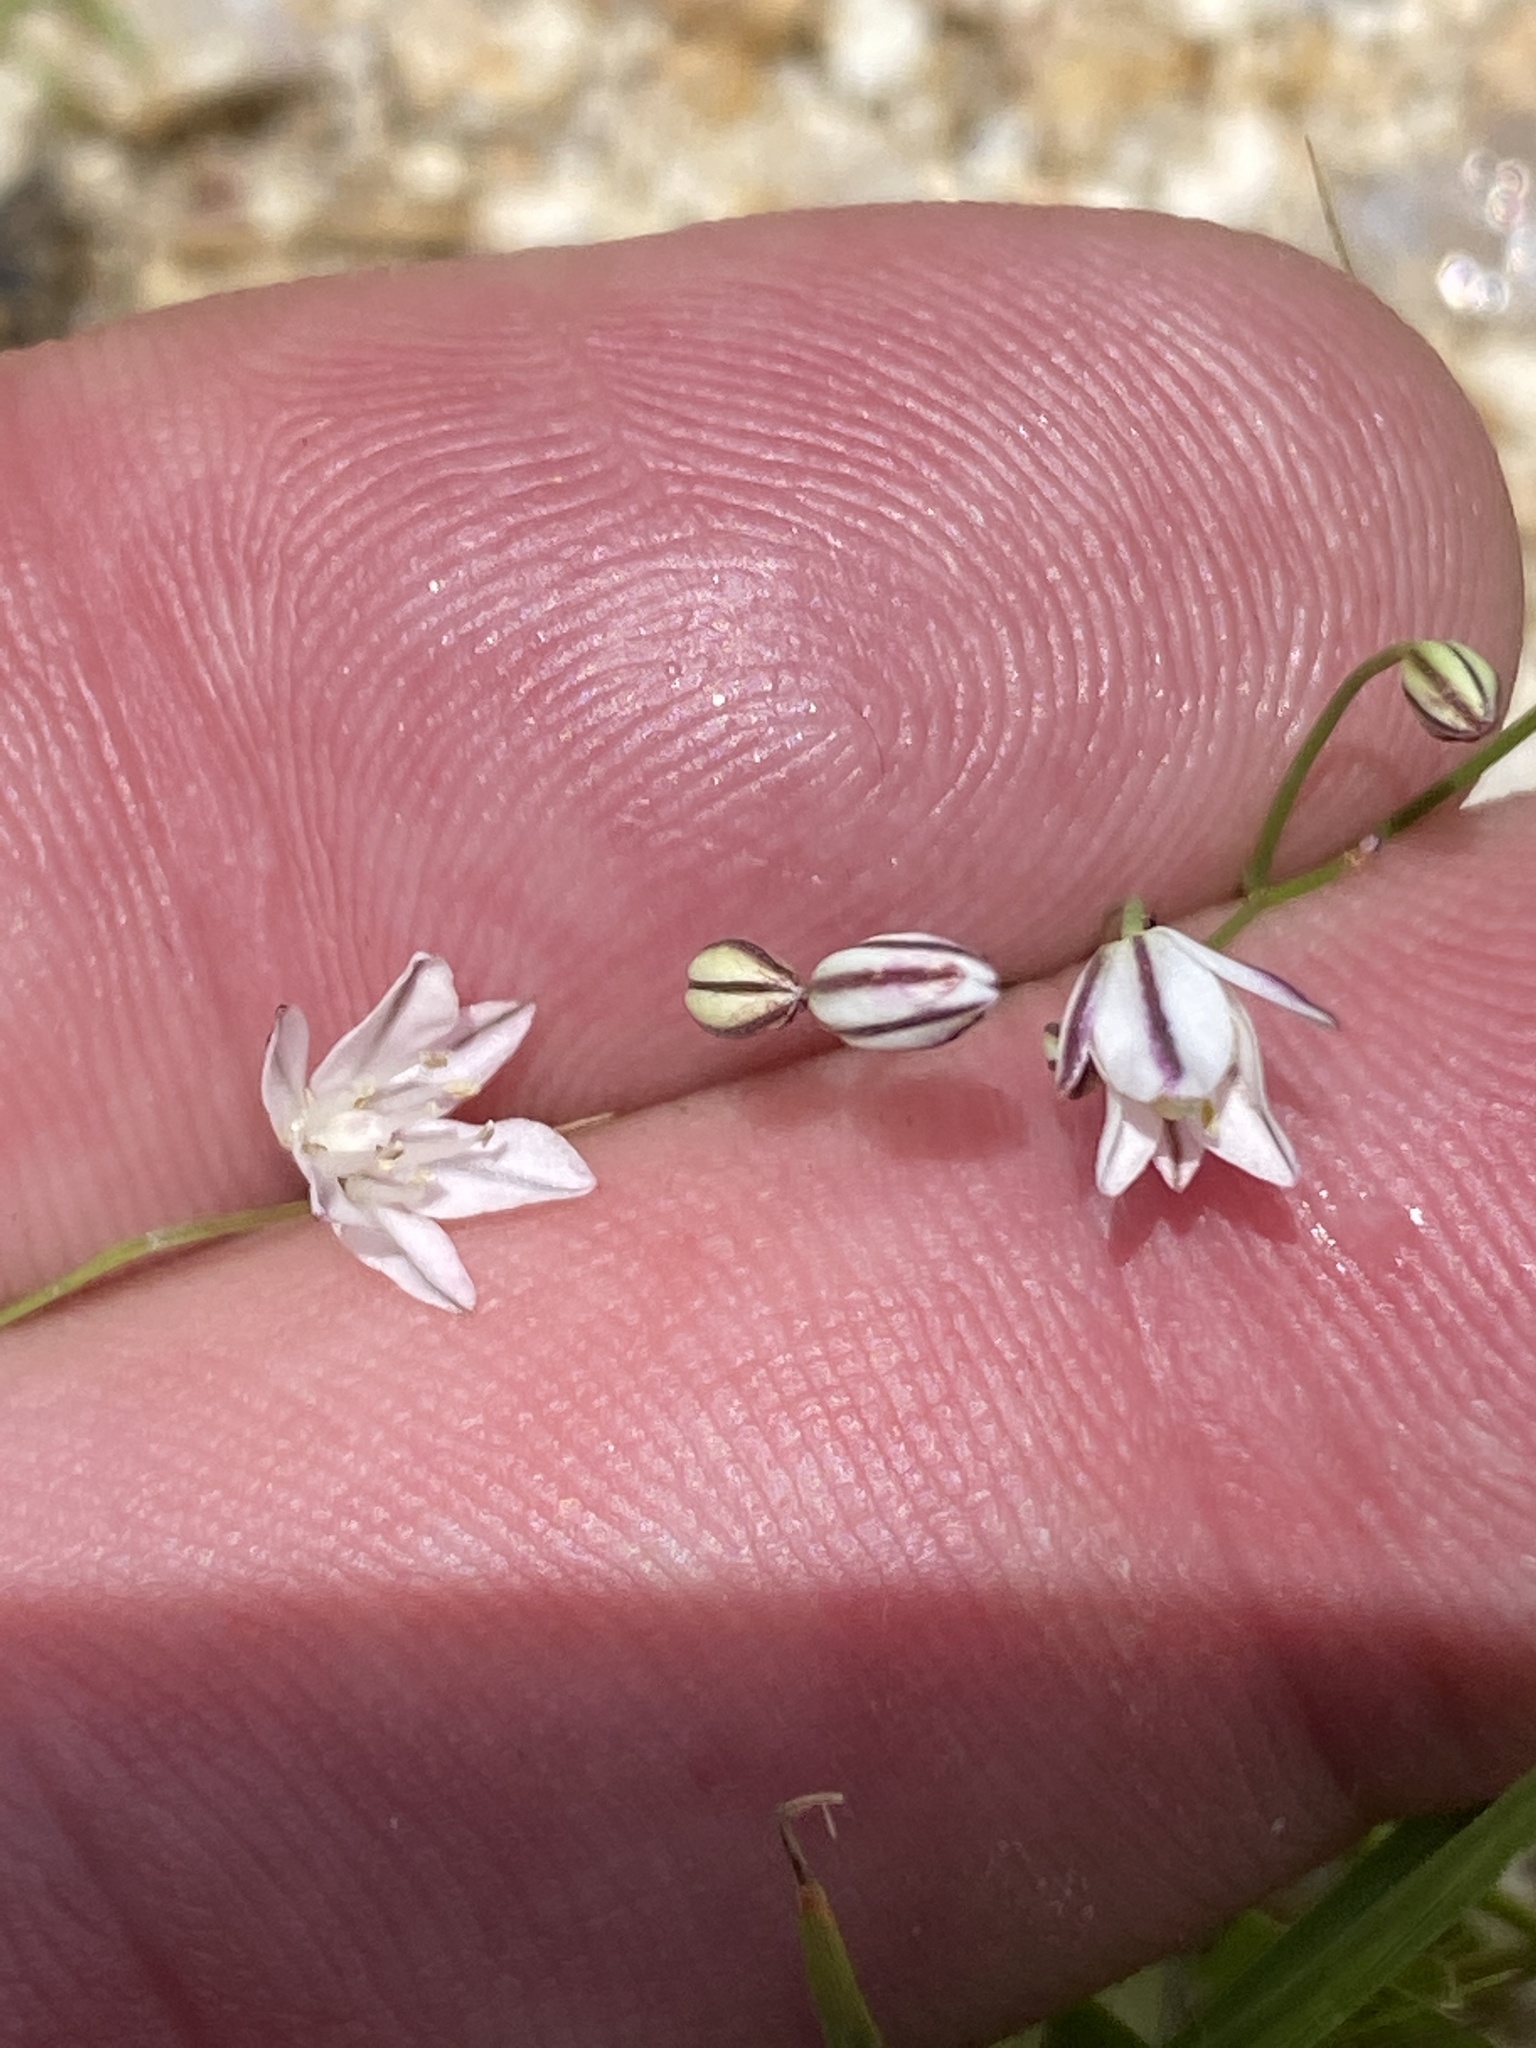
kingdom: Plantae
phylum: Tracheophyta
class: Liliopsida
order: Asparagales
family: Asparagaceae
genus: Eriospermum
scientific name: Eriospermum bakerianum
